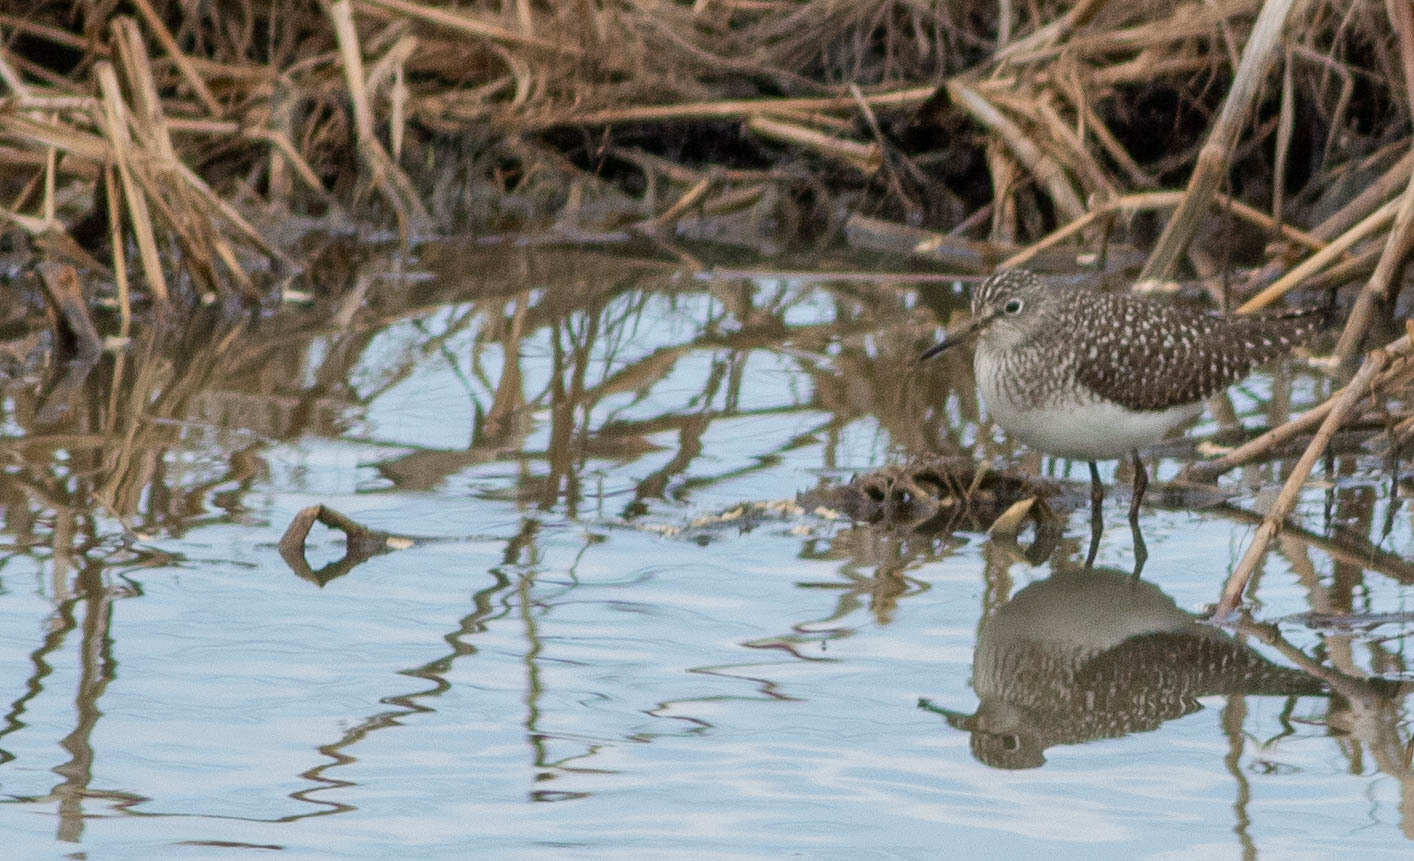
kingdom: Animalia
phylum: Chordata
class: Aves
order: Charadriiformes
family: Scolopacidae
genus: Tringa
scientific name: Tringa solitaria
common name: Solitary sandpiper
